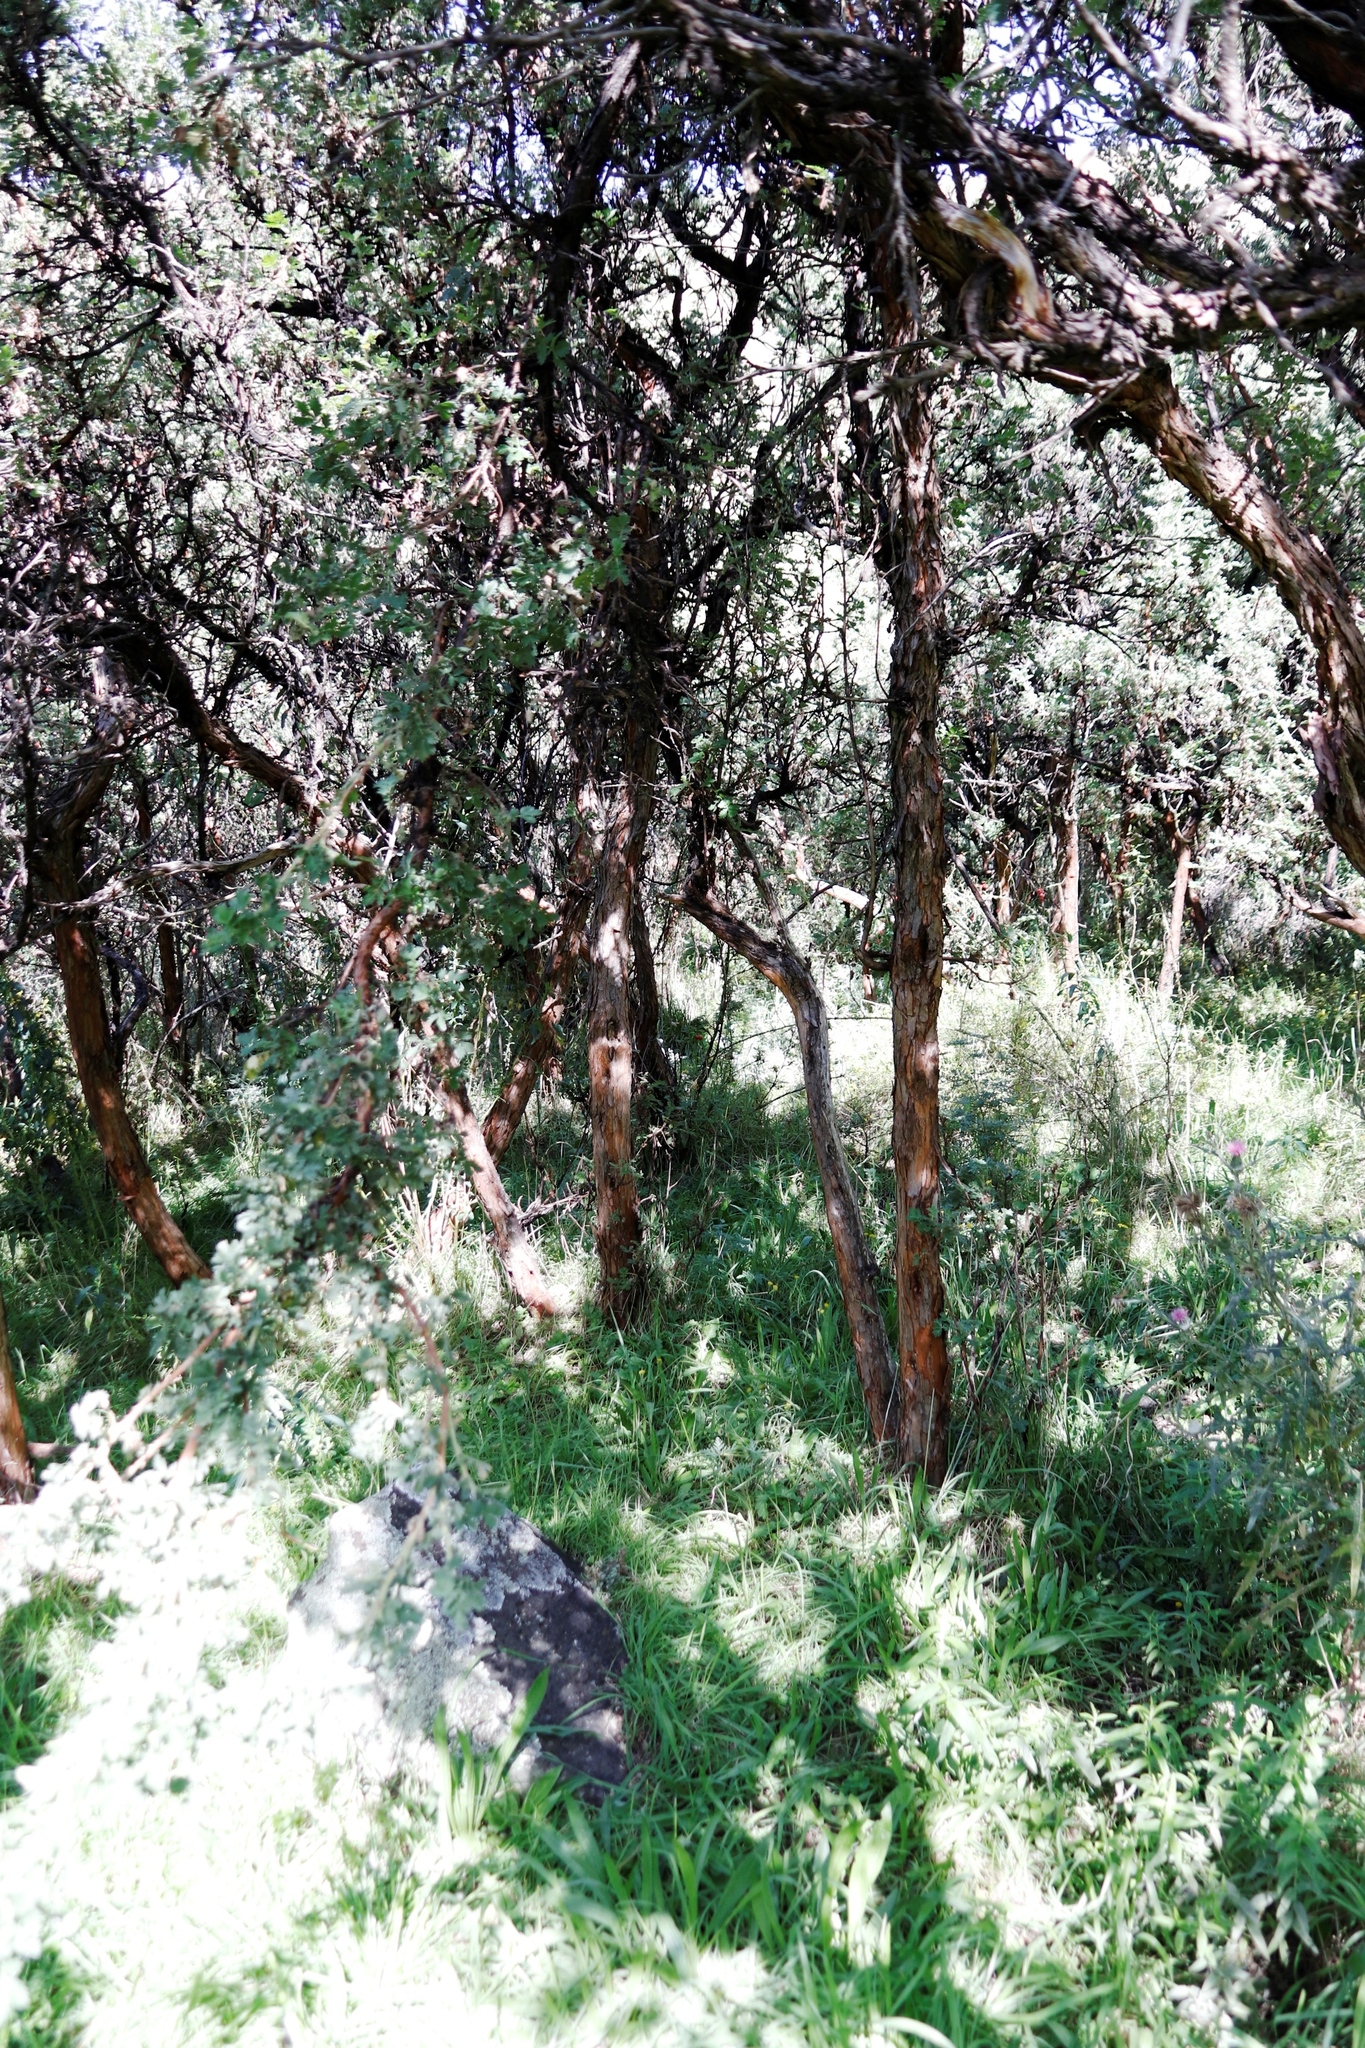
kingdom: Plantae
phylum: Tracheophyta
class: Magnoliopsida
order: Rosales
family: Rosaceae
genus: Leucosidea
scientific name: Leucosidea sericea
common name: Oldwood
